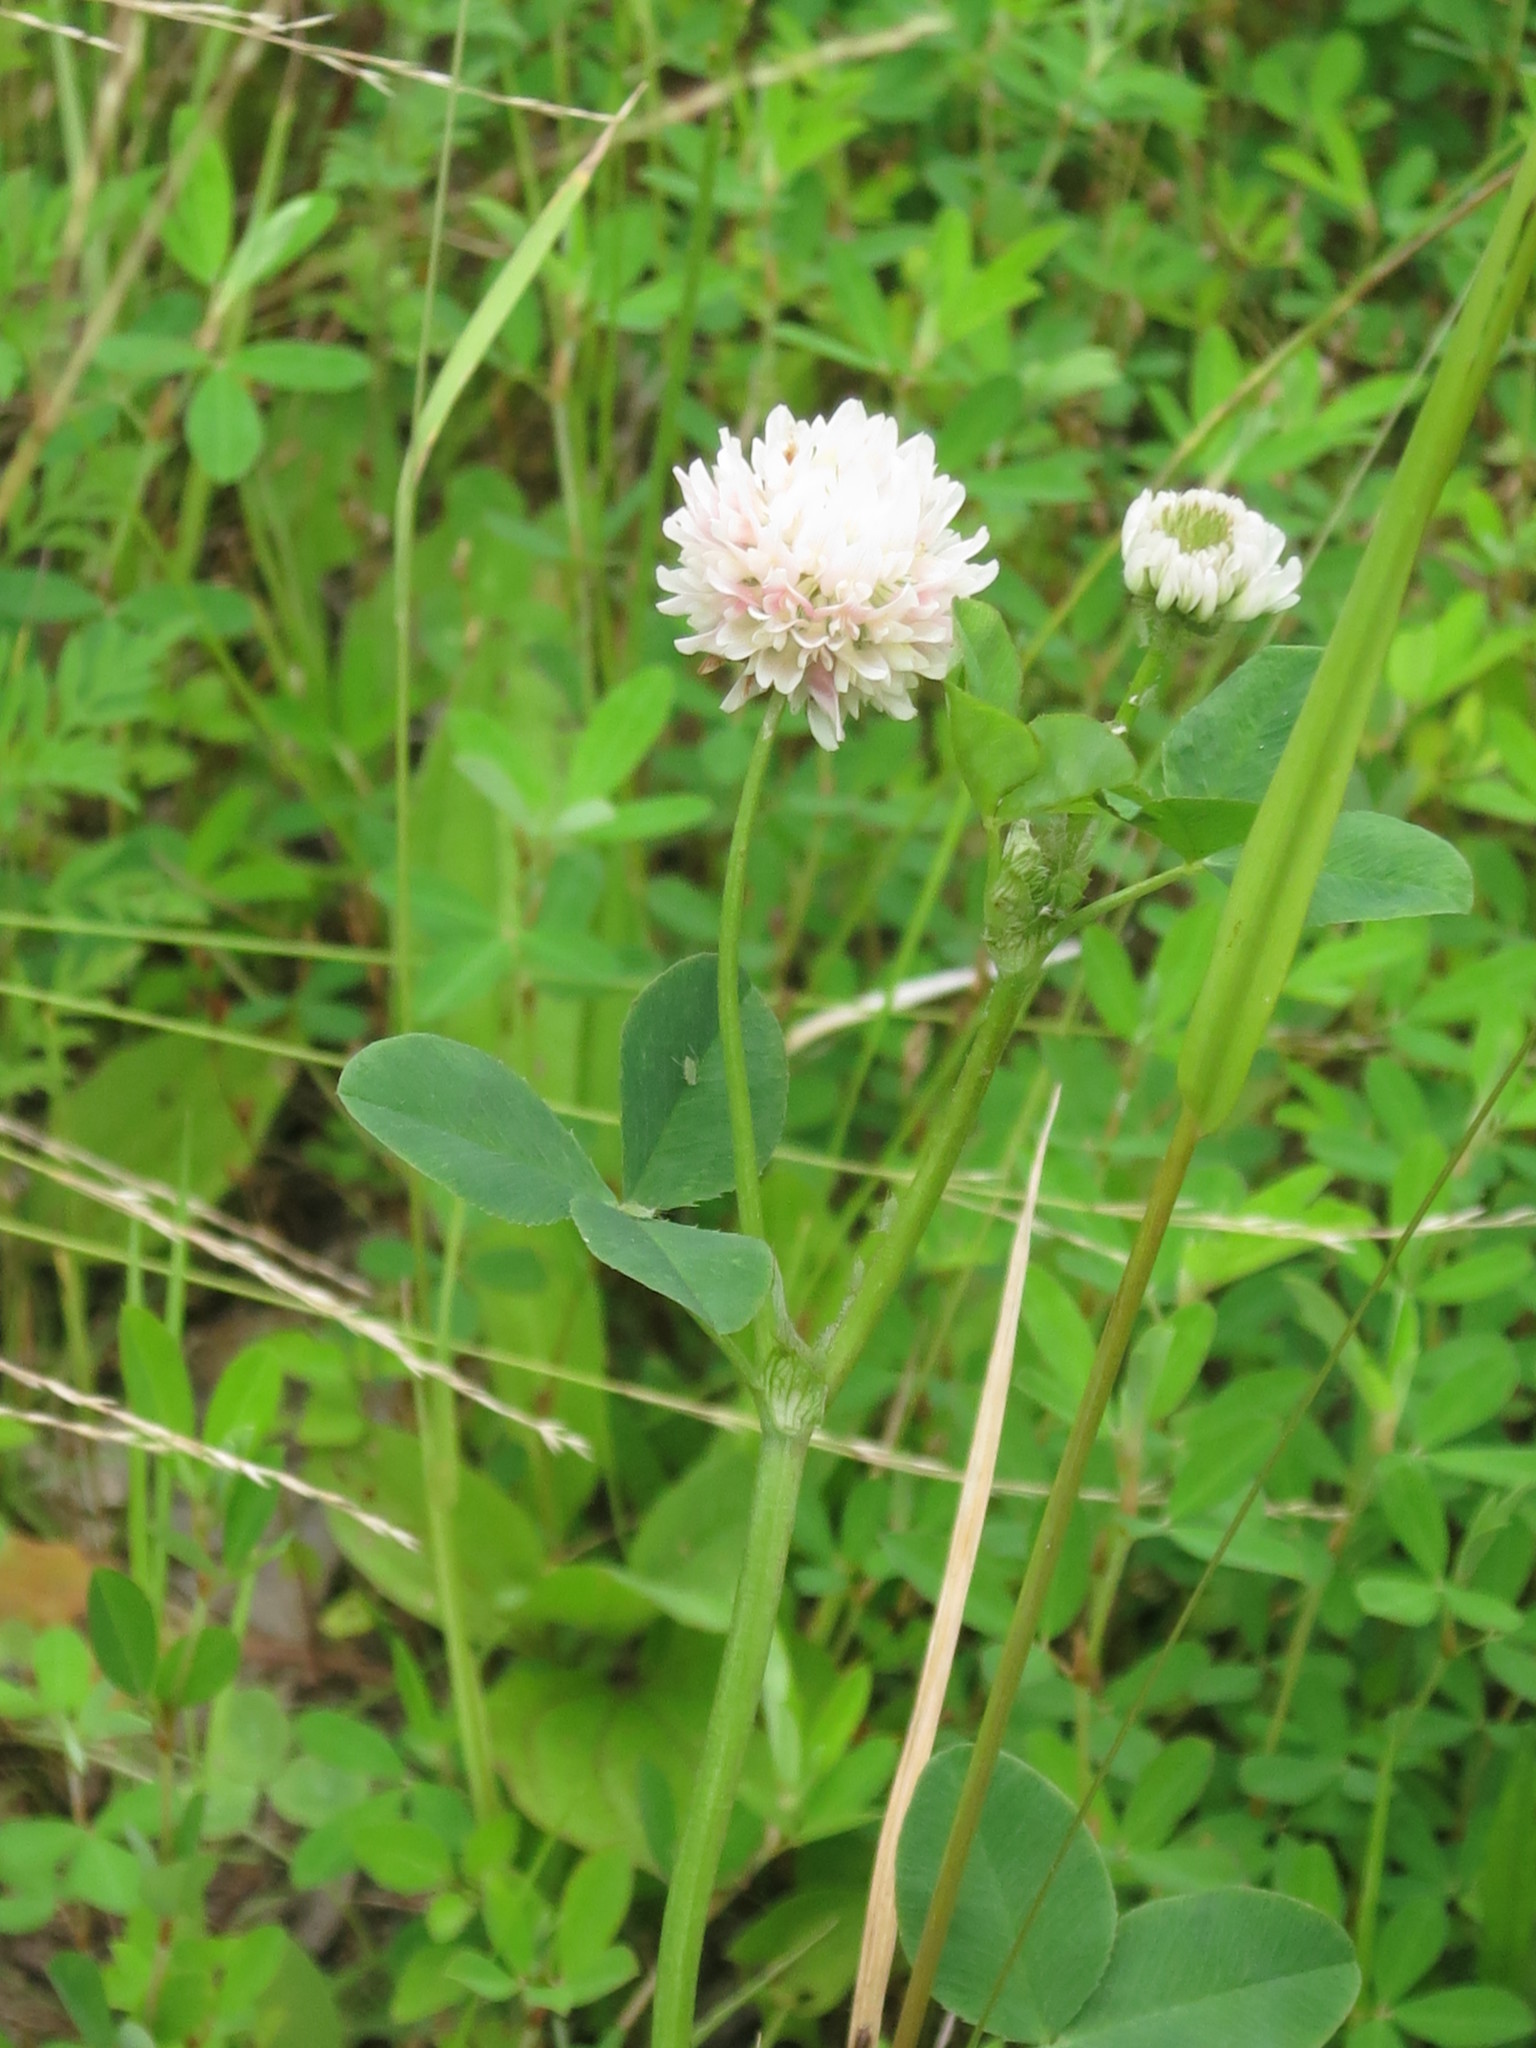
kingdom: Plantae
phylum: Tracheophyta
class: Magnoliopsida
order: Fabales
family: Fabaceae
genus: Trifolium
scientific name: Trifolium hybridum
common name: Alsike clover
